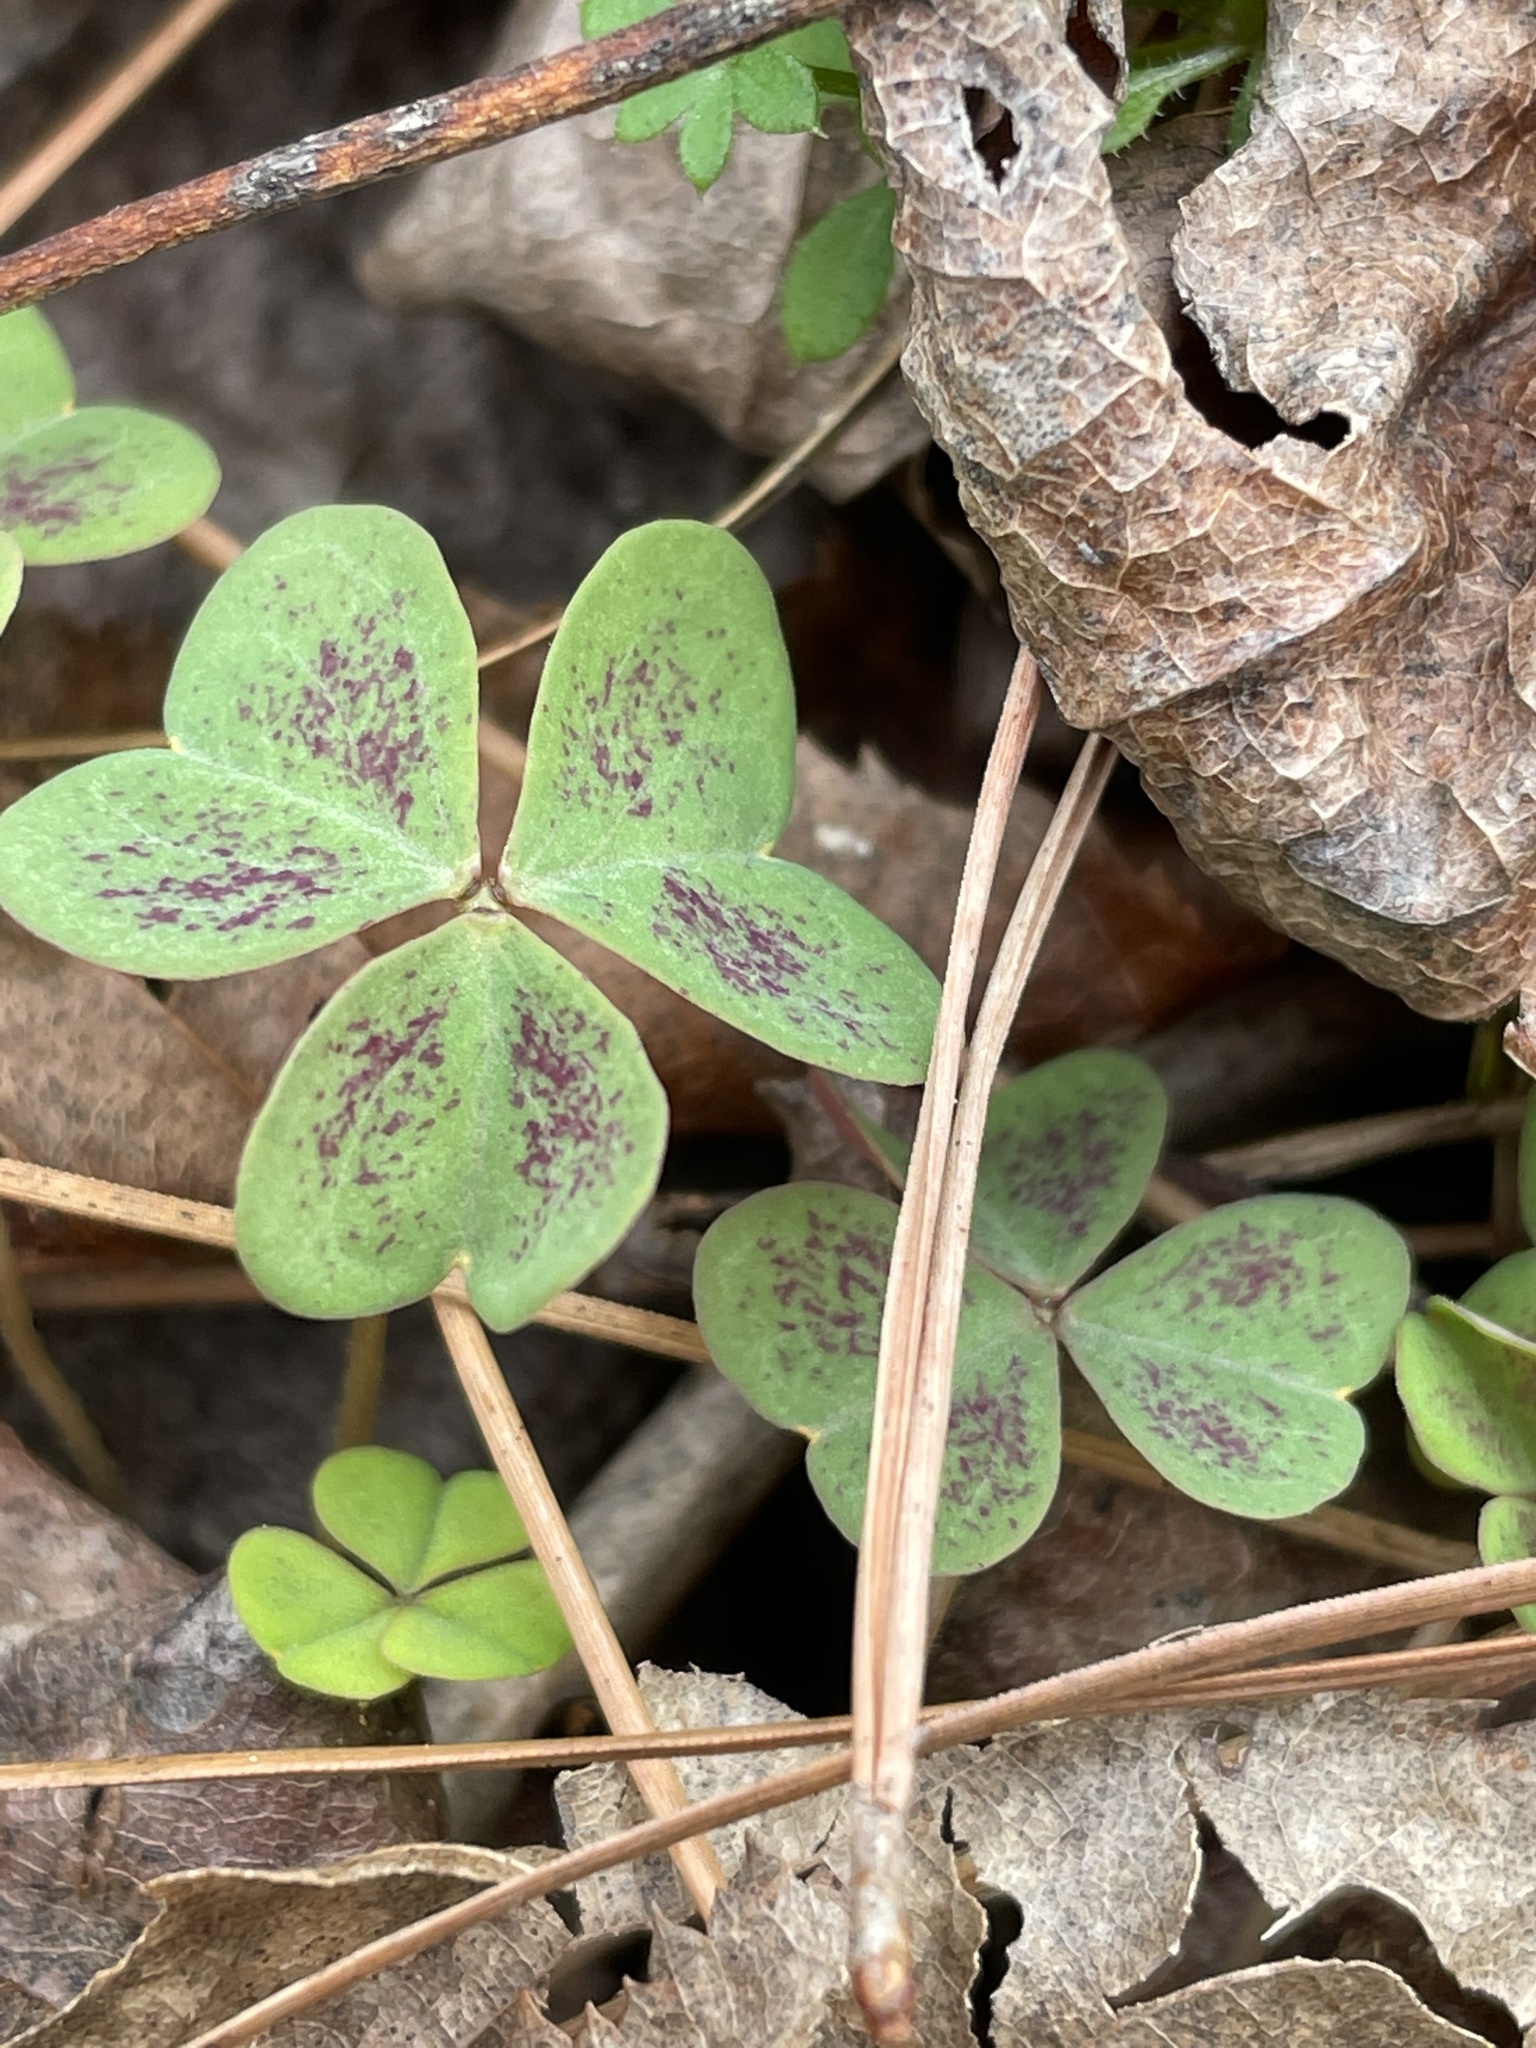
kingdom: Plantae
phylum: Tracheophyta
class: Magnoliopsida
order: Oxalidales
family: Oxalidaceae
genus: Oxalis
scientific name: Oxalis violacea
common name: Violet wood-sorrel
